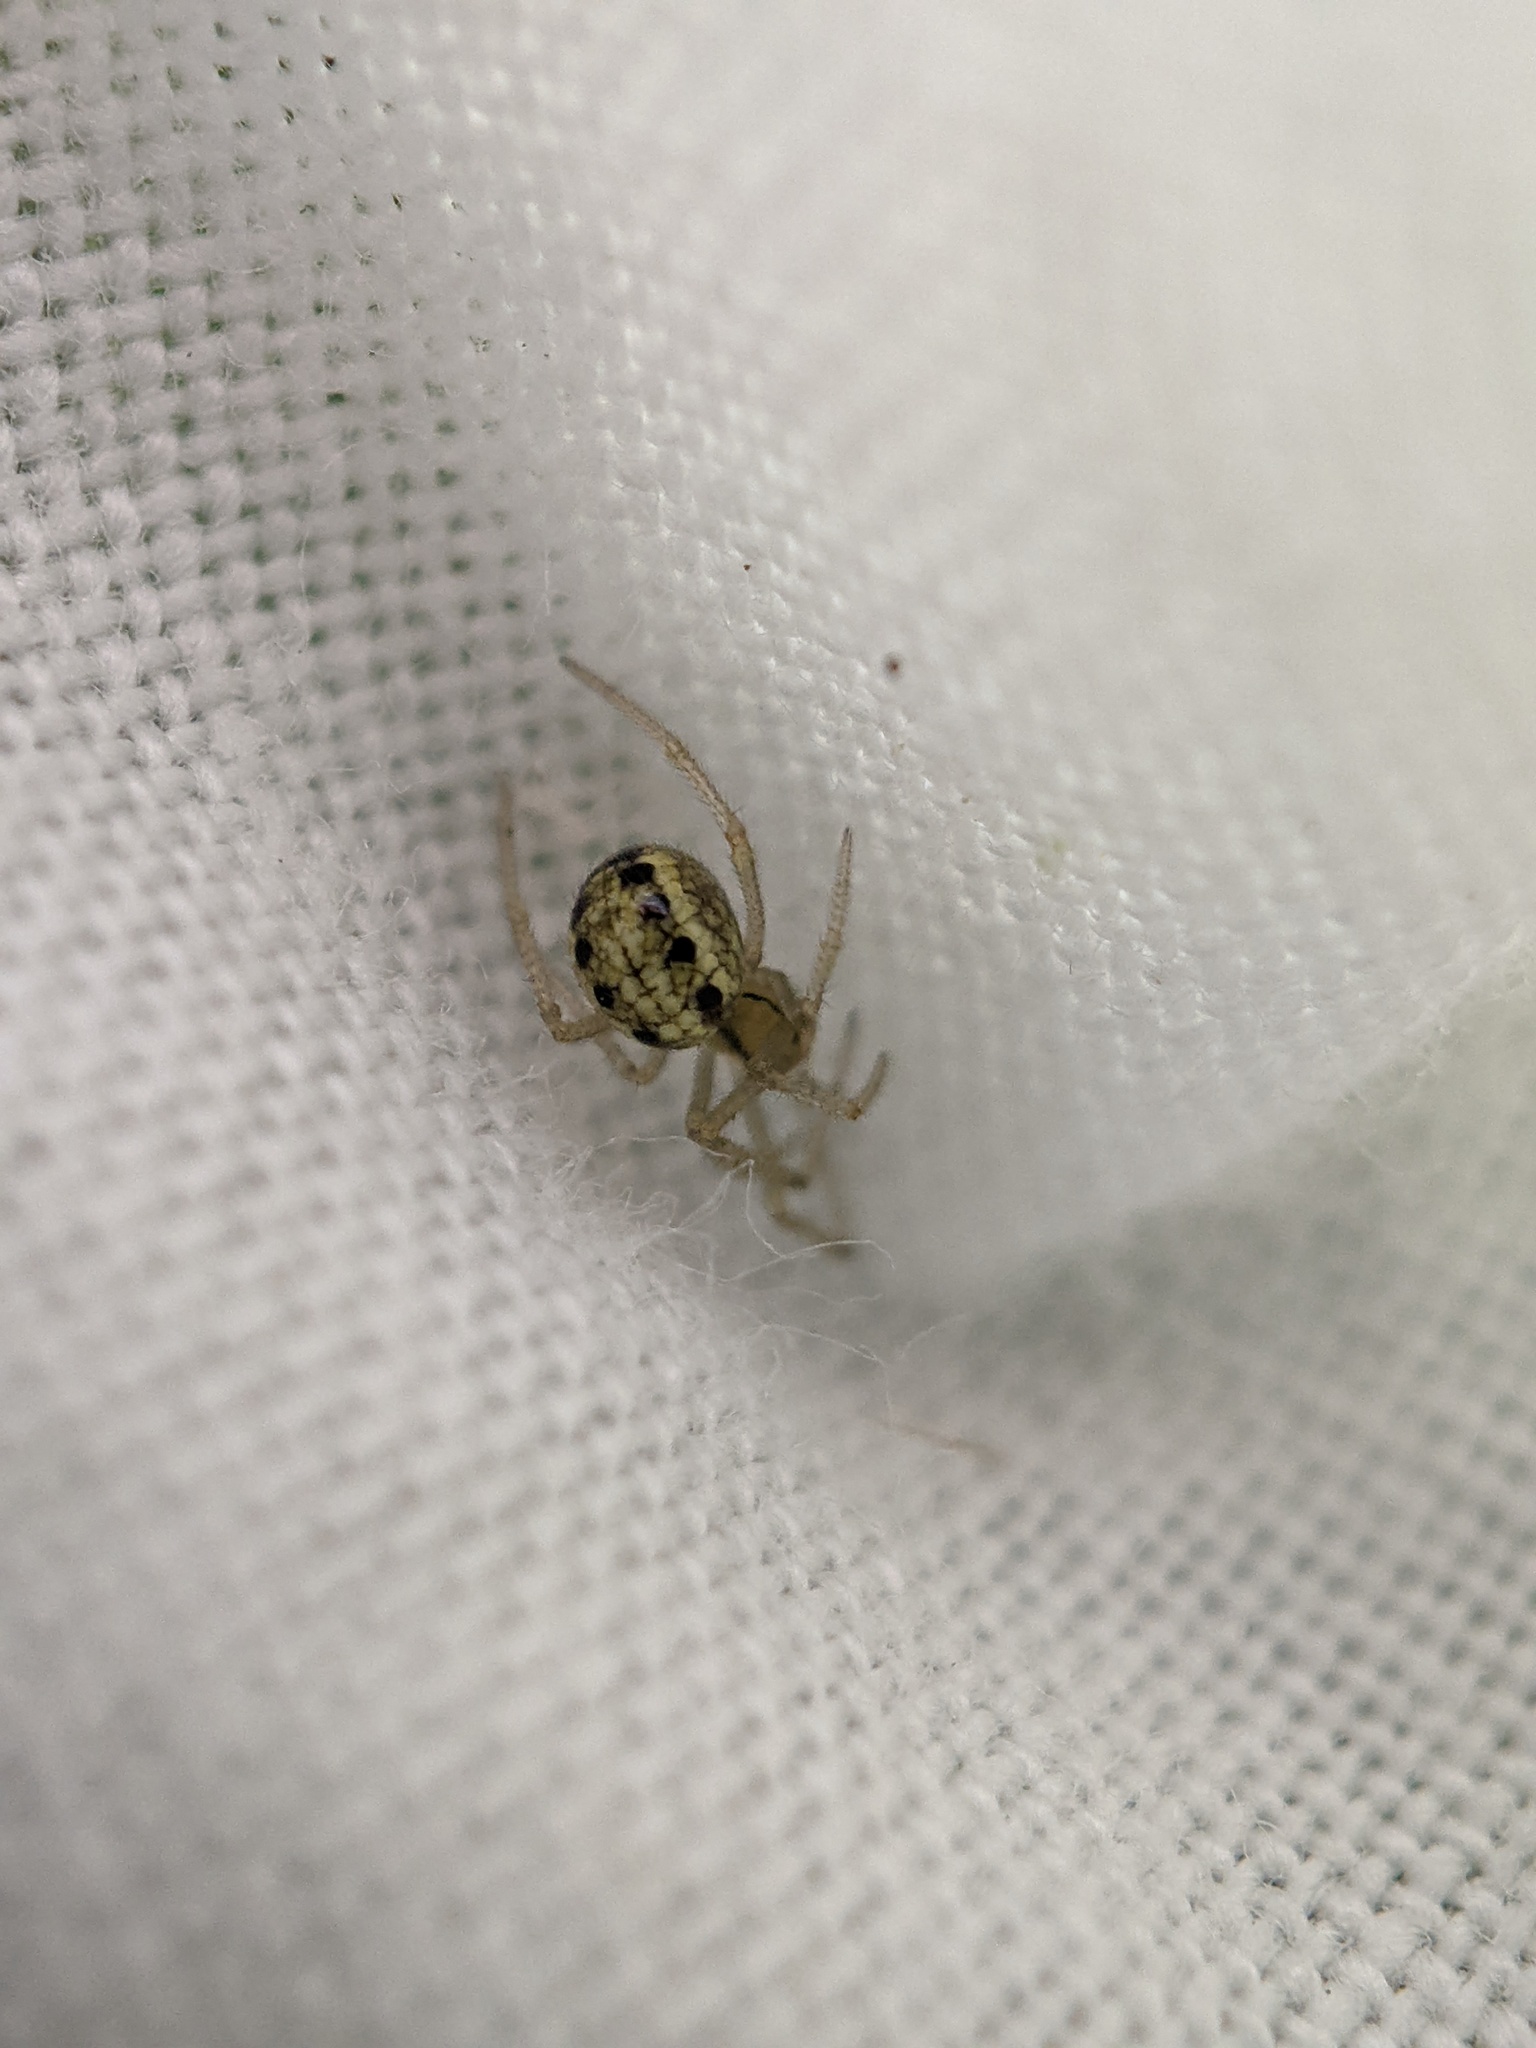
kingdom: Animalia
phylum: Arthropoda
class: Arachnida
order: Araneae
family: Theridiidae
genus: Enoplognatha
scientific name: Enoplognatha
